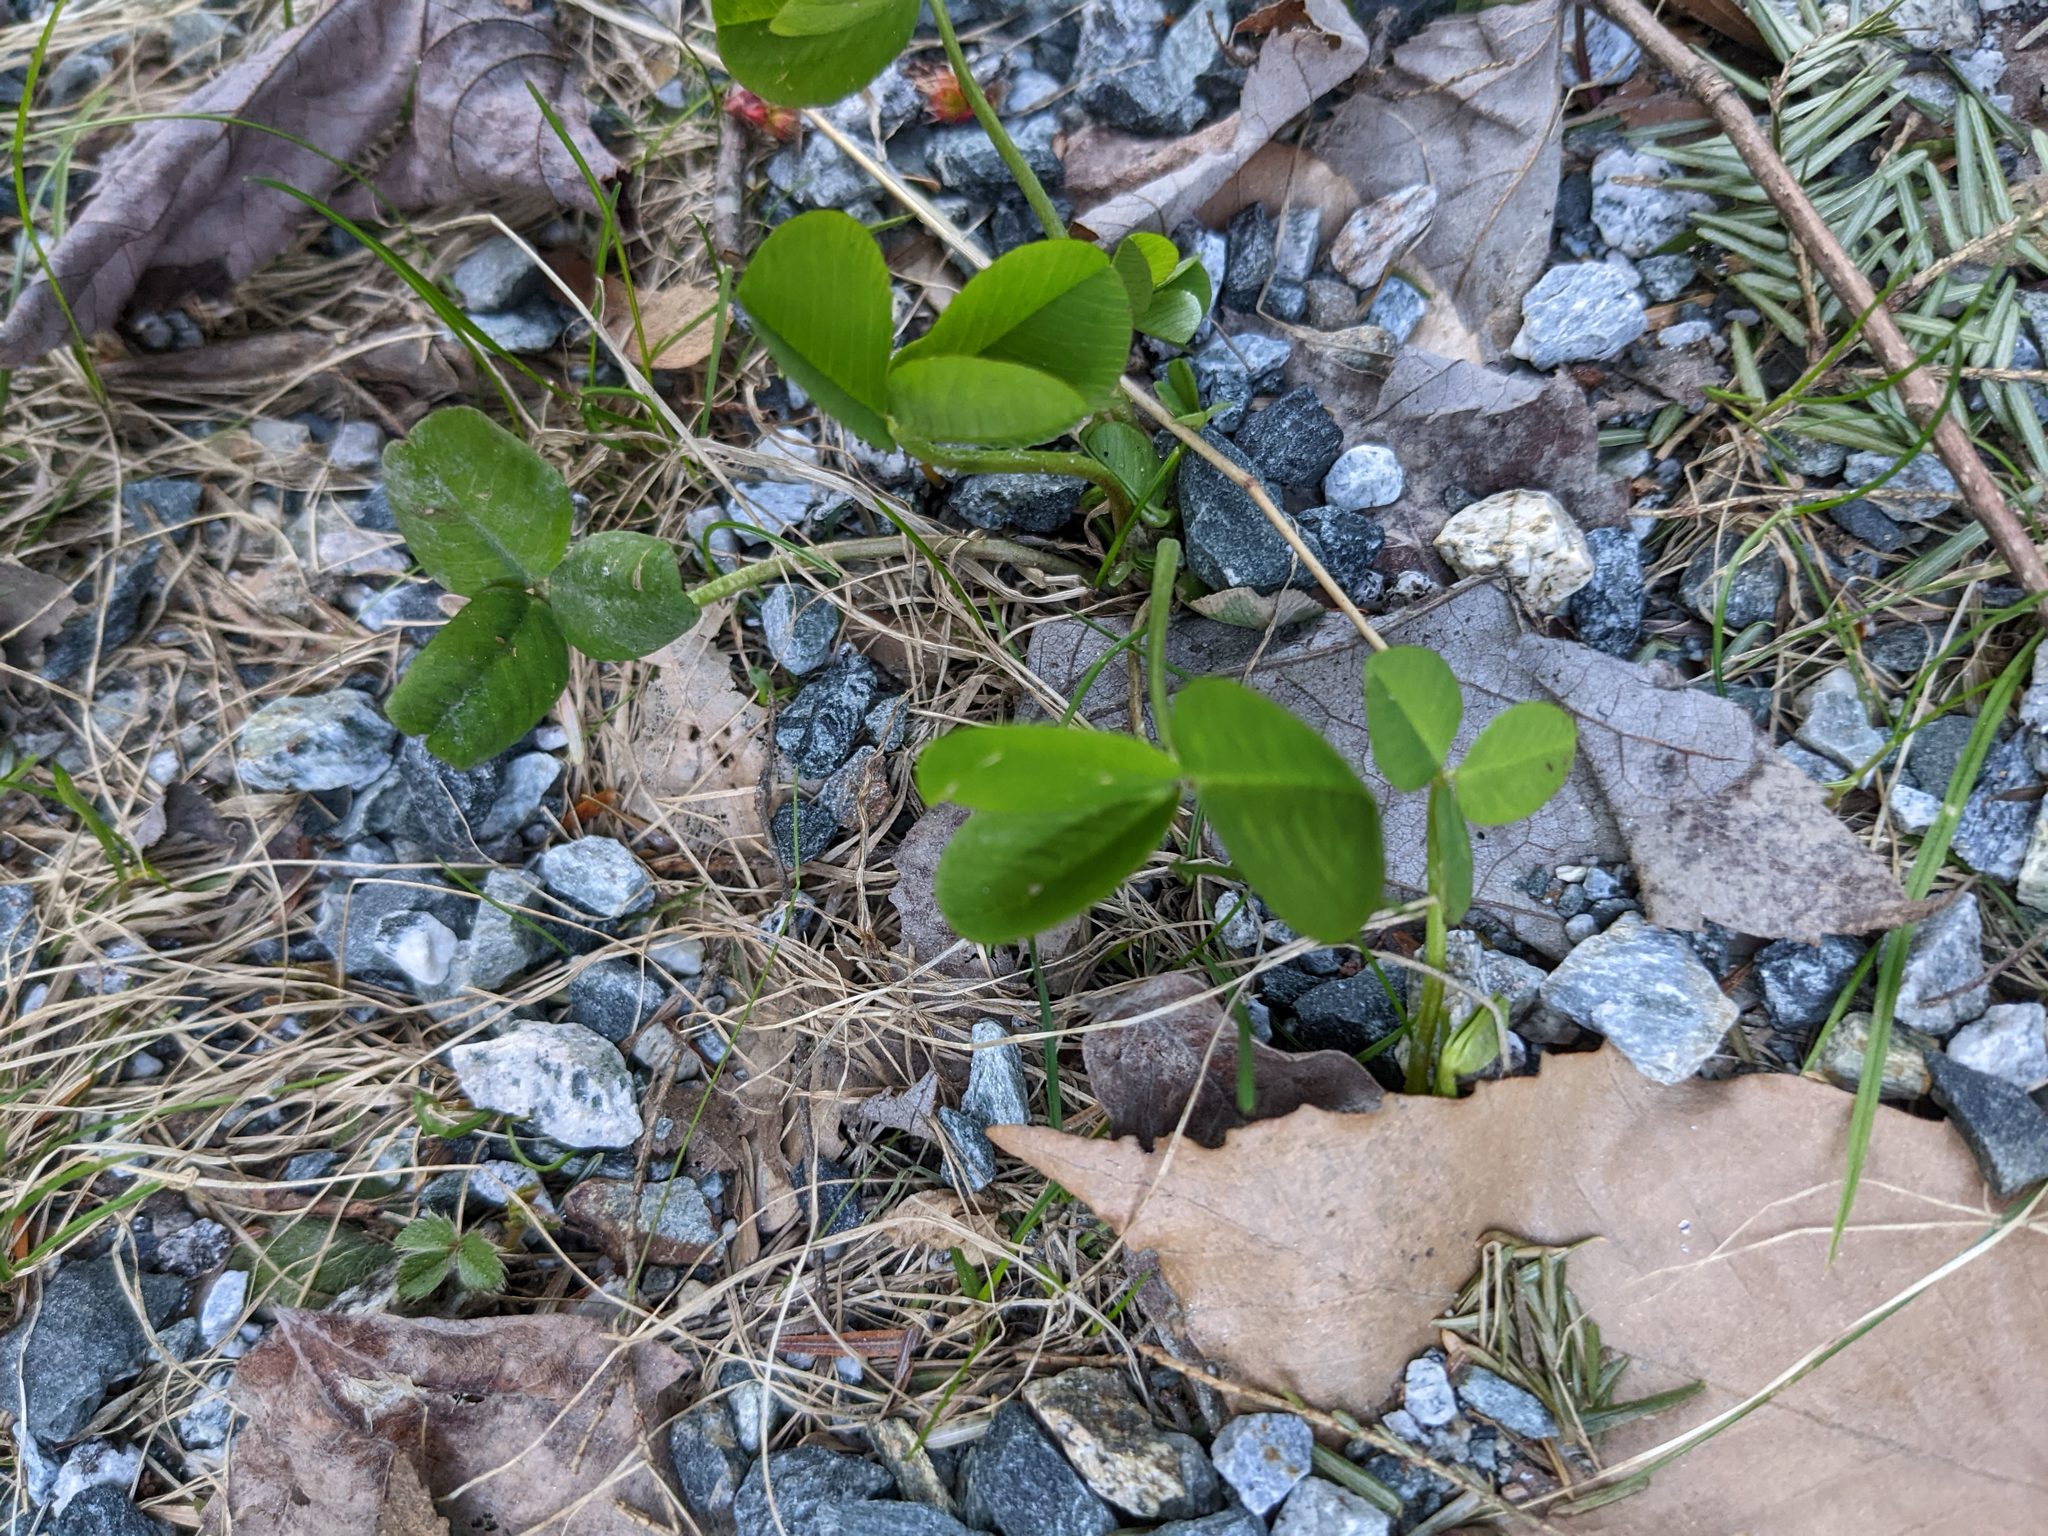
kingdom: Plantae
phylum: Tracheophyta
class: Magnoliopsida
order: Fabales
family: Fabaceae
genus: Trifolium
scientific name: Trifolium repens
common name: White clover
